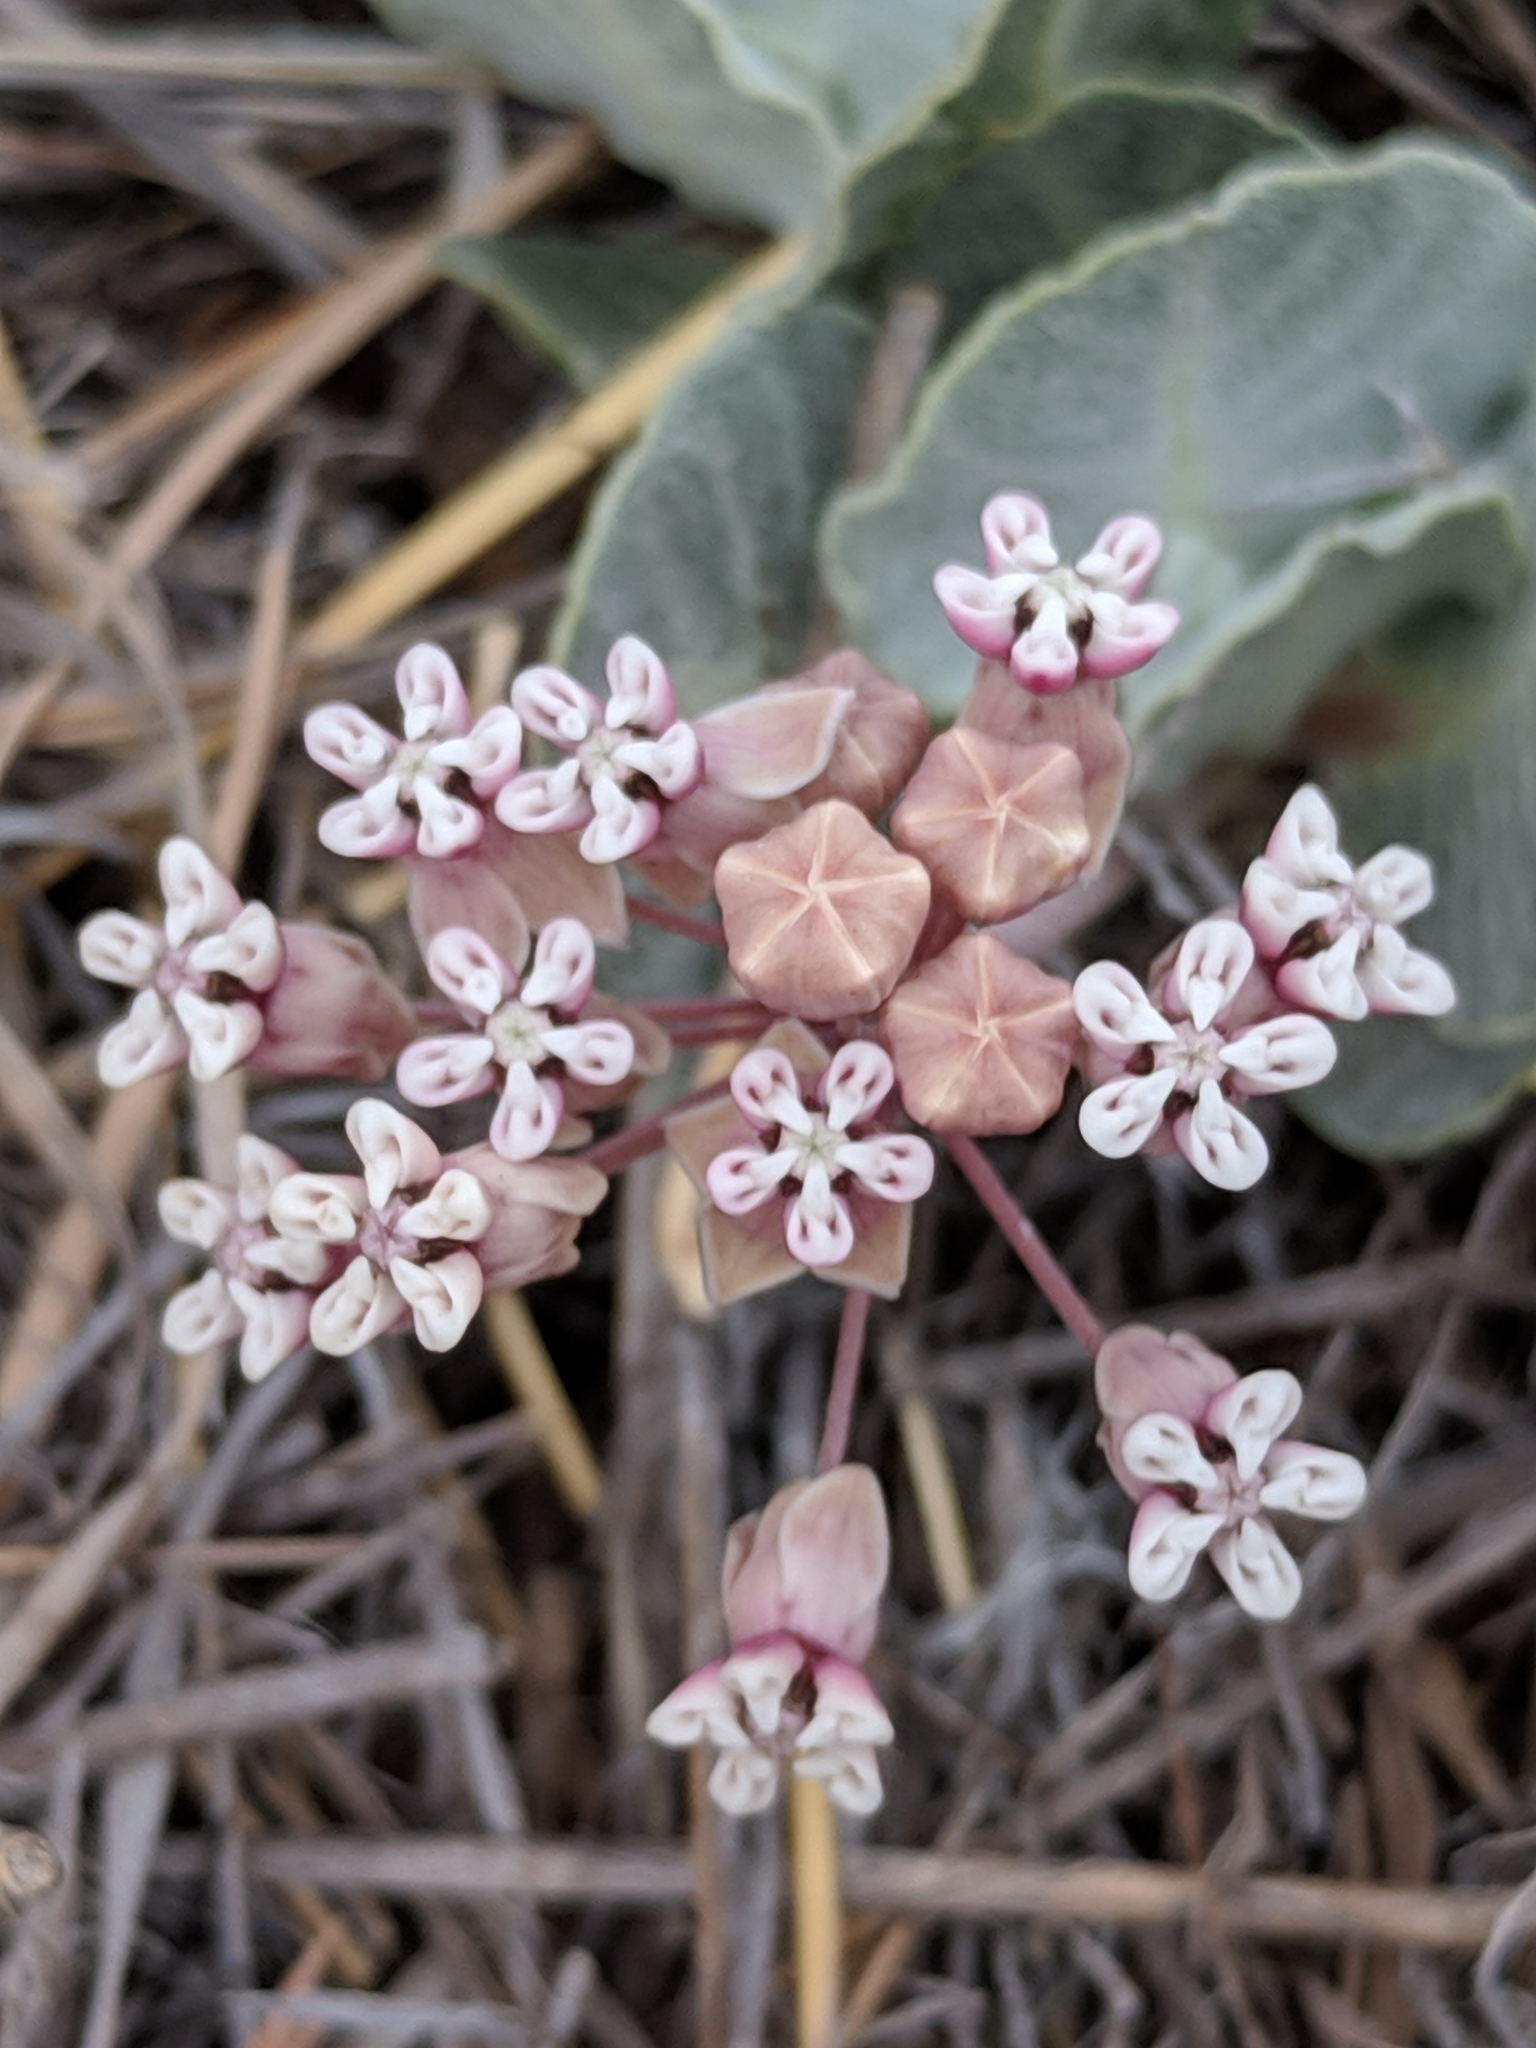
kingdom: Plantae
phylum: Tracheophyta
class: Magnoliopsida
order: Gentianales
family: Apocynaceae
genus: Asclepias
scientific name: Asclepias nummularia
